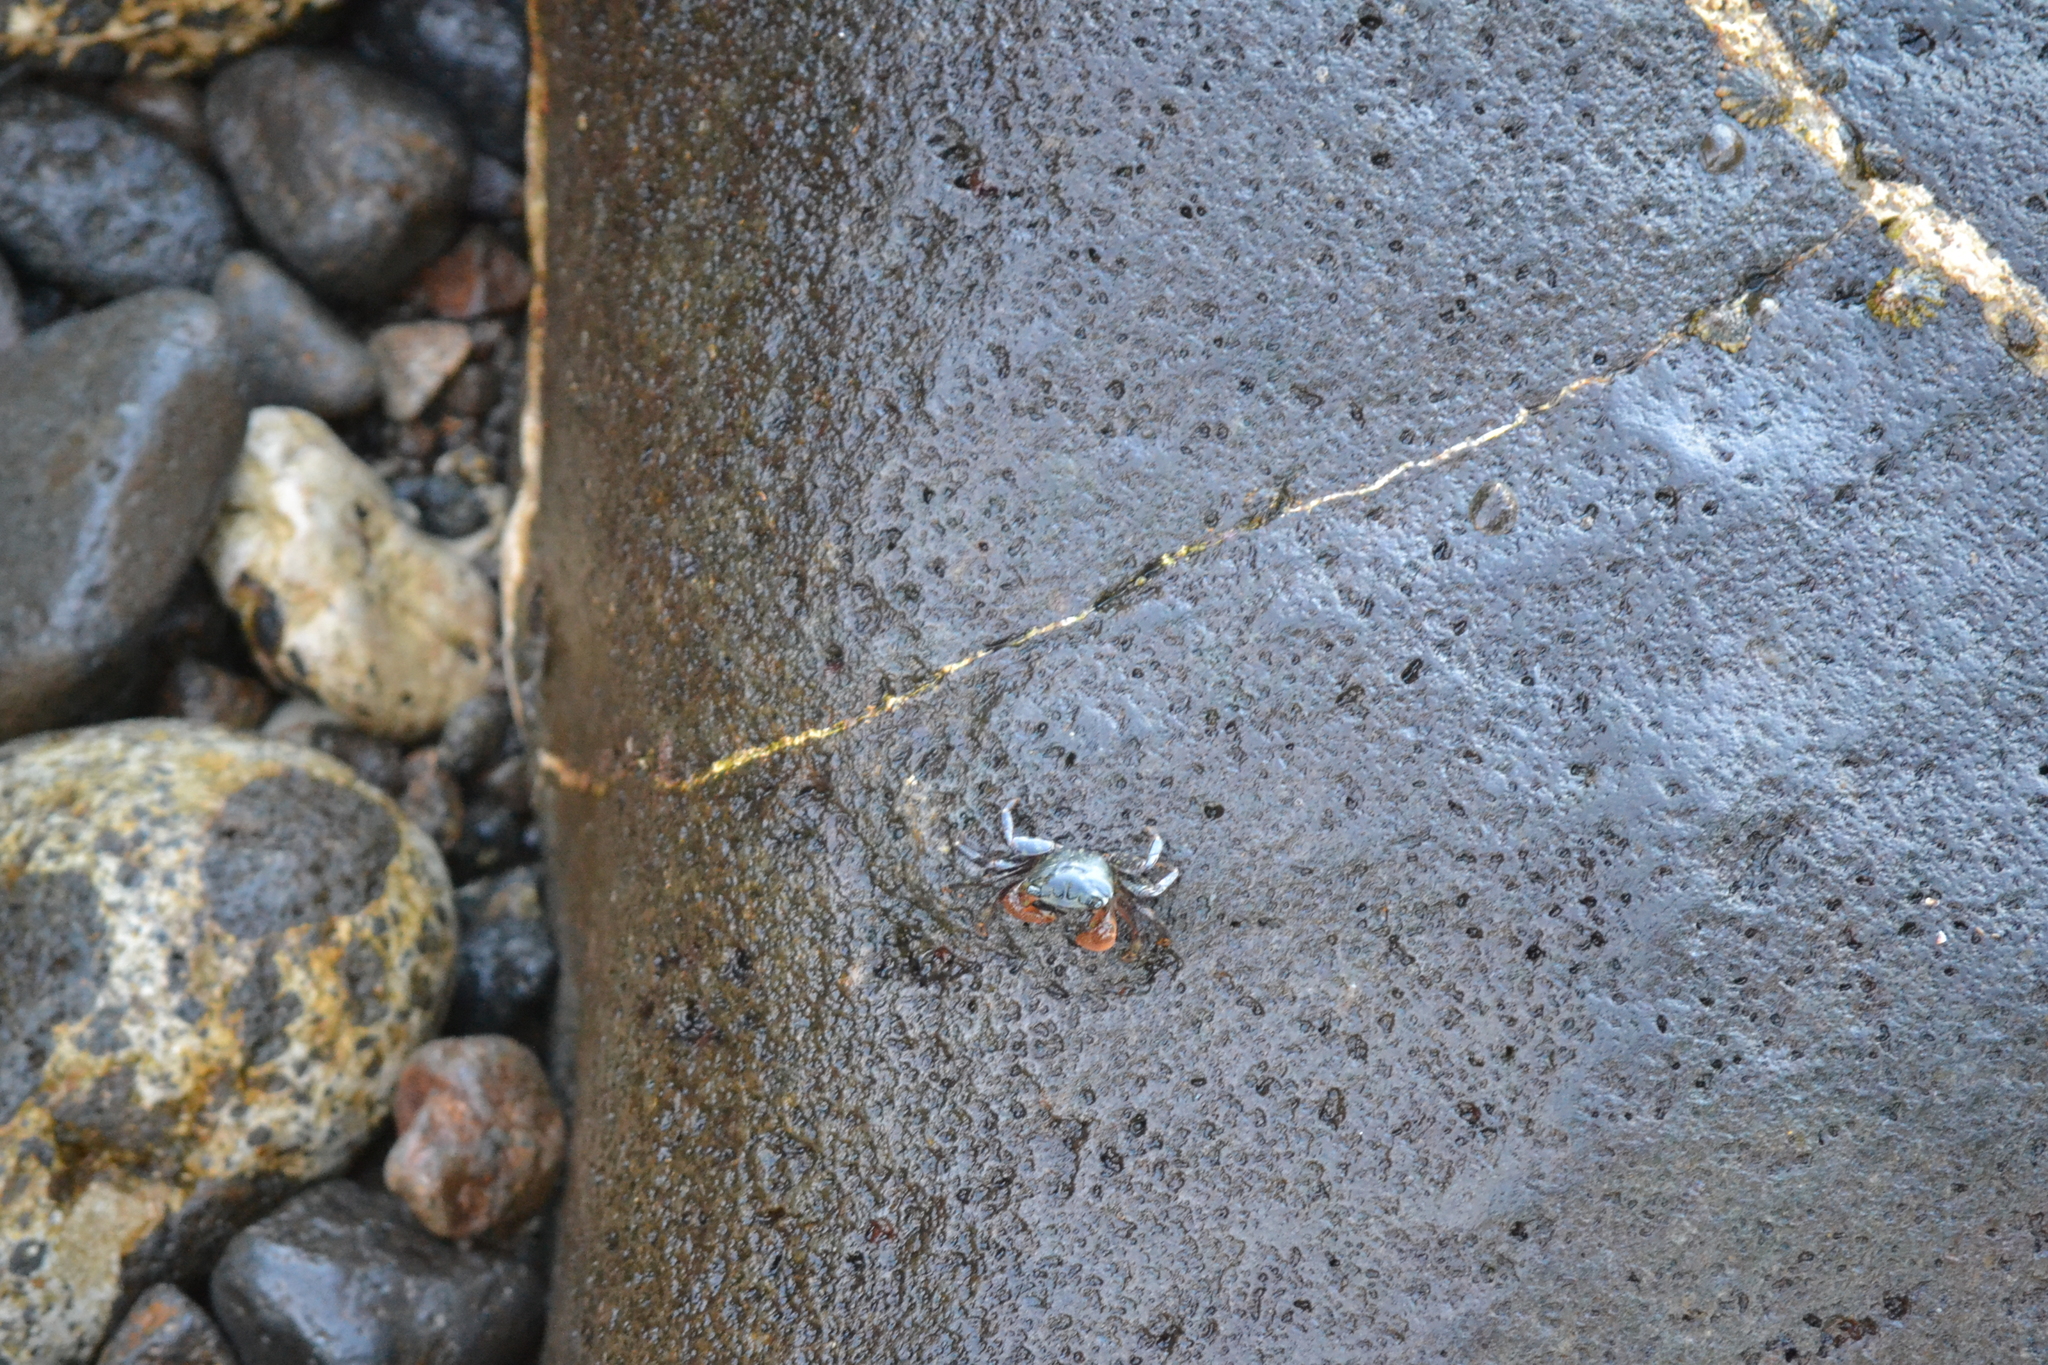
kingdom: Animalia
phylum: Arthropoda
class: Malacostraca
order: Decapoda
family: Grapsidae
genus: Pachygrapsus
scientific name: Pachygrapsus crassipes
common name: Striped shore crab
